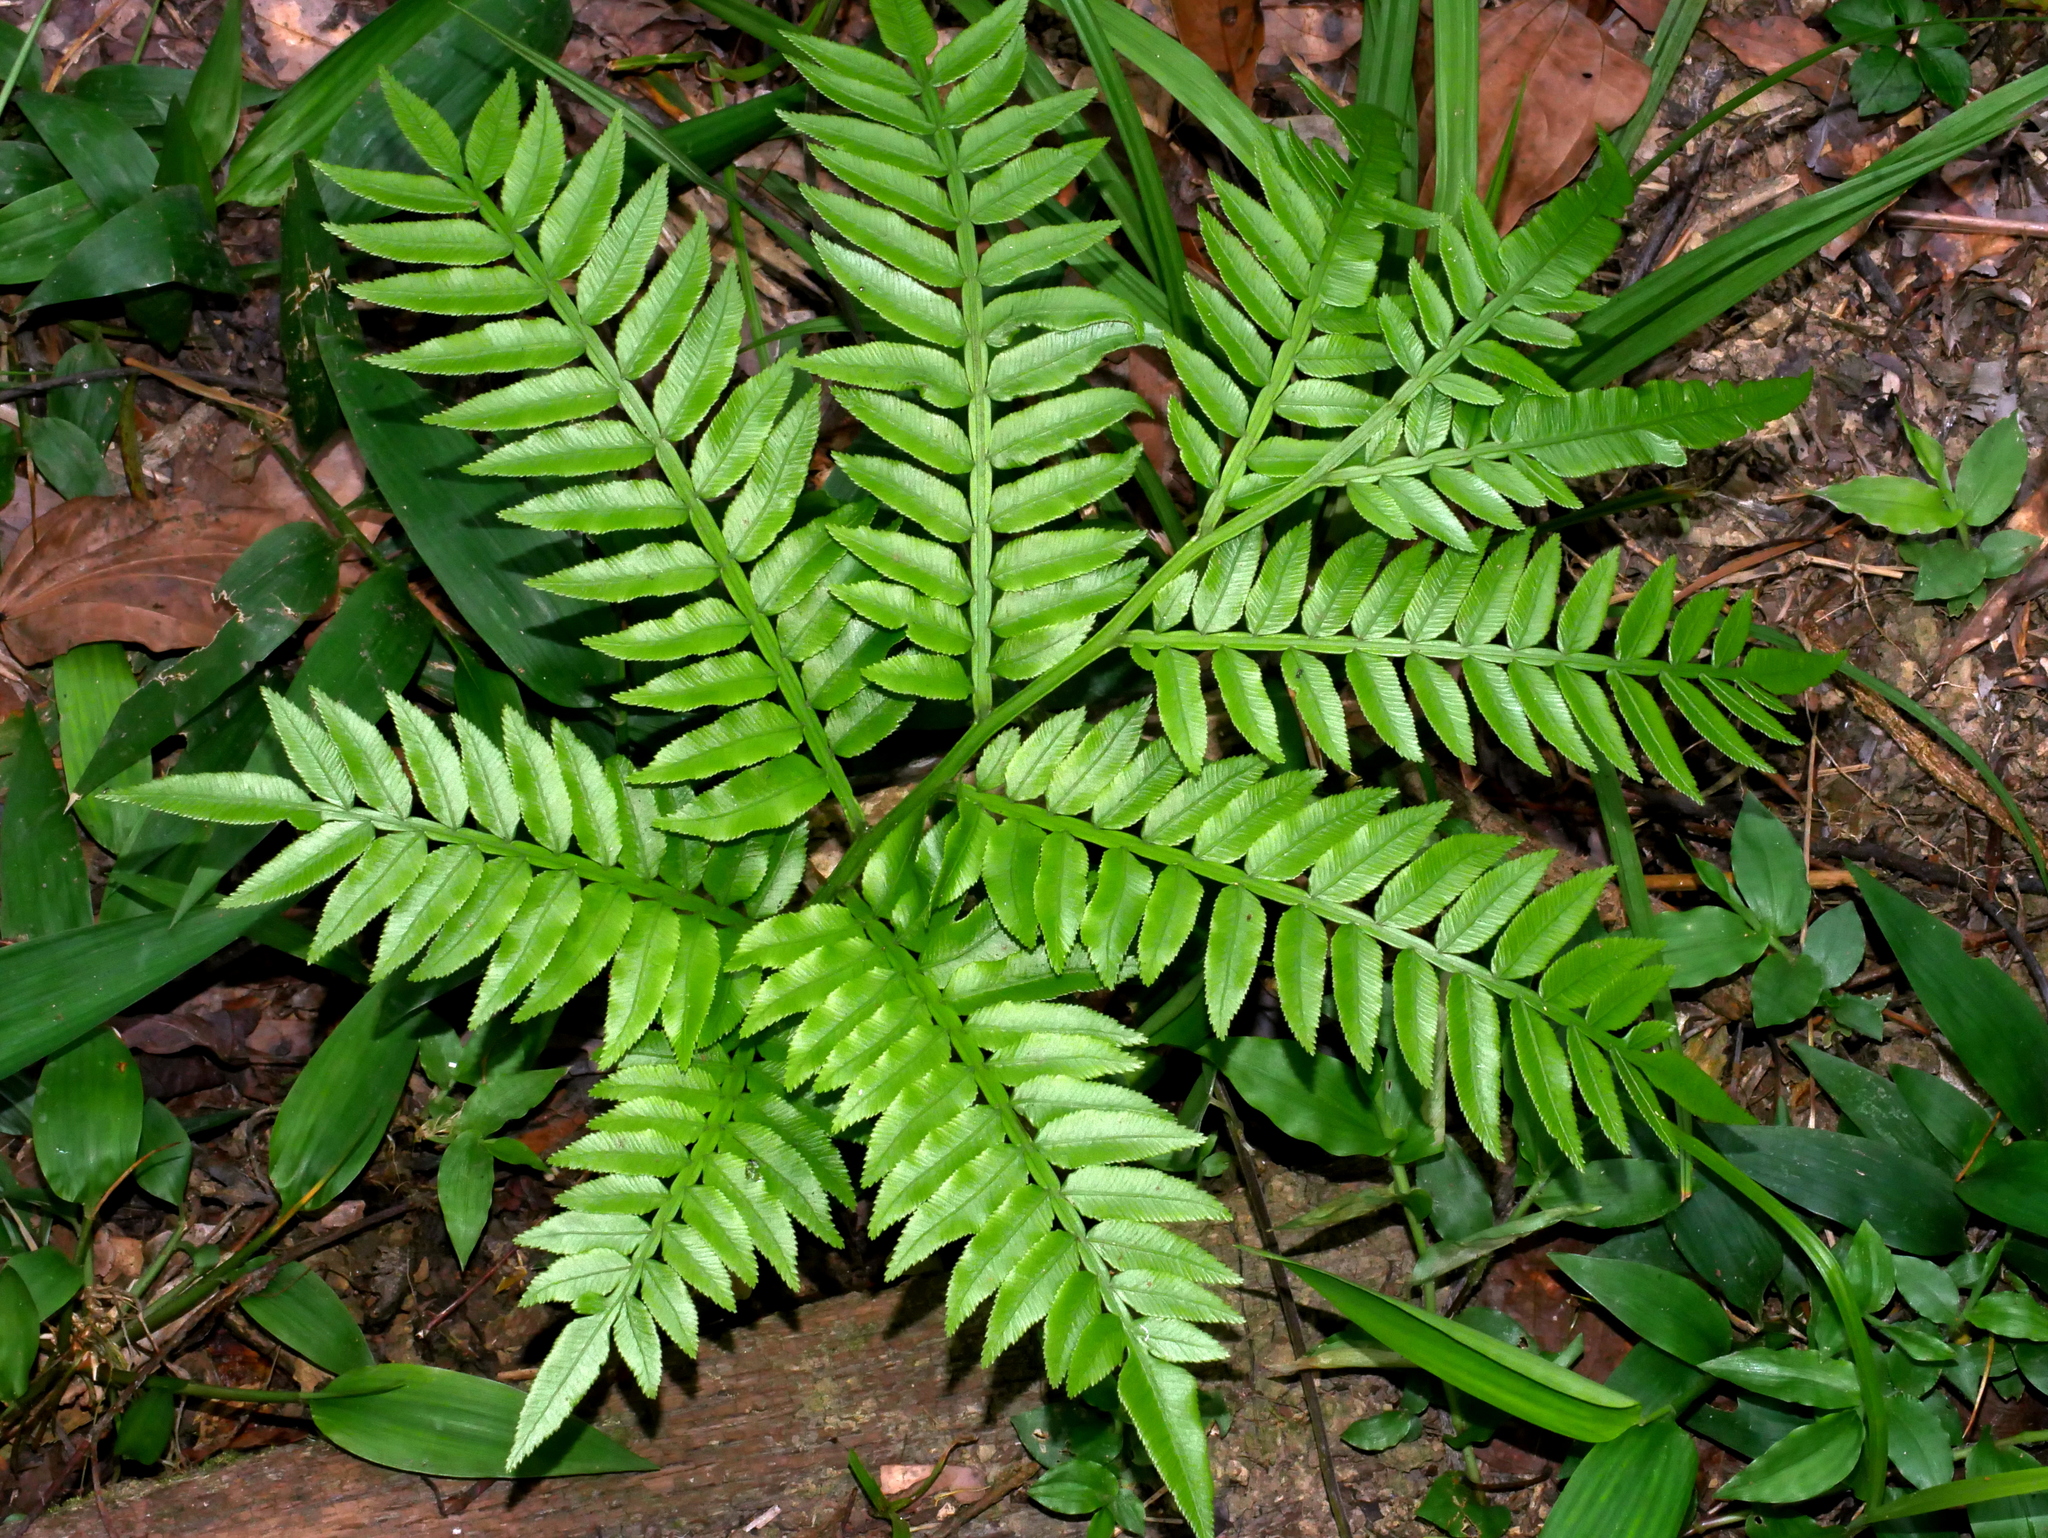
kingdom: Plantae
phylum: Tracheophyta
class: Polypodiopsida
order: Marattiales
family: Marattiaceae
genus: Angiopteris
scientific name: Angiopteris lygodiifolia
